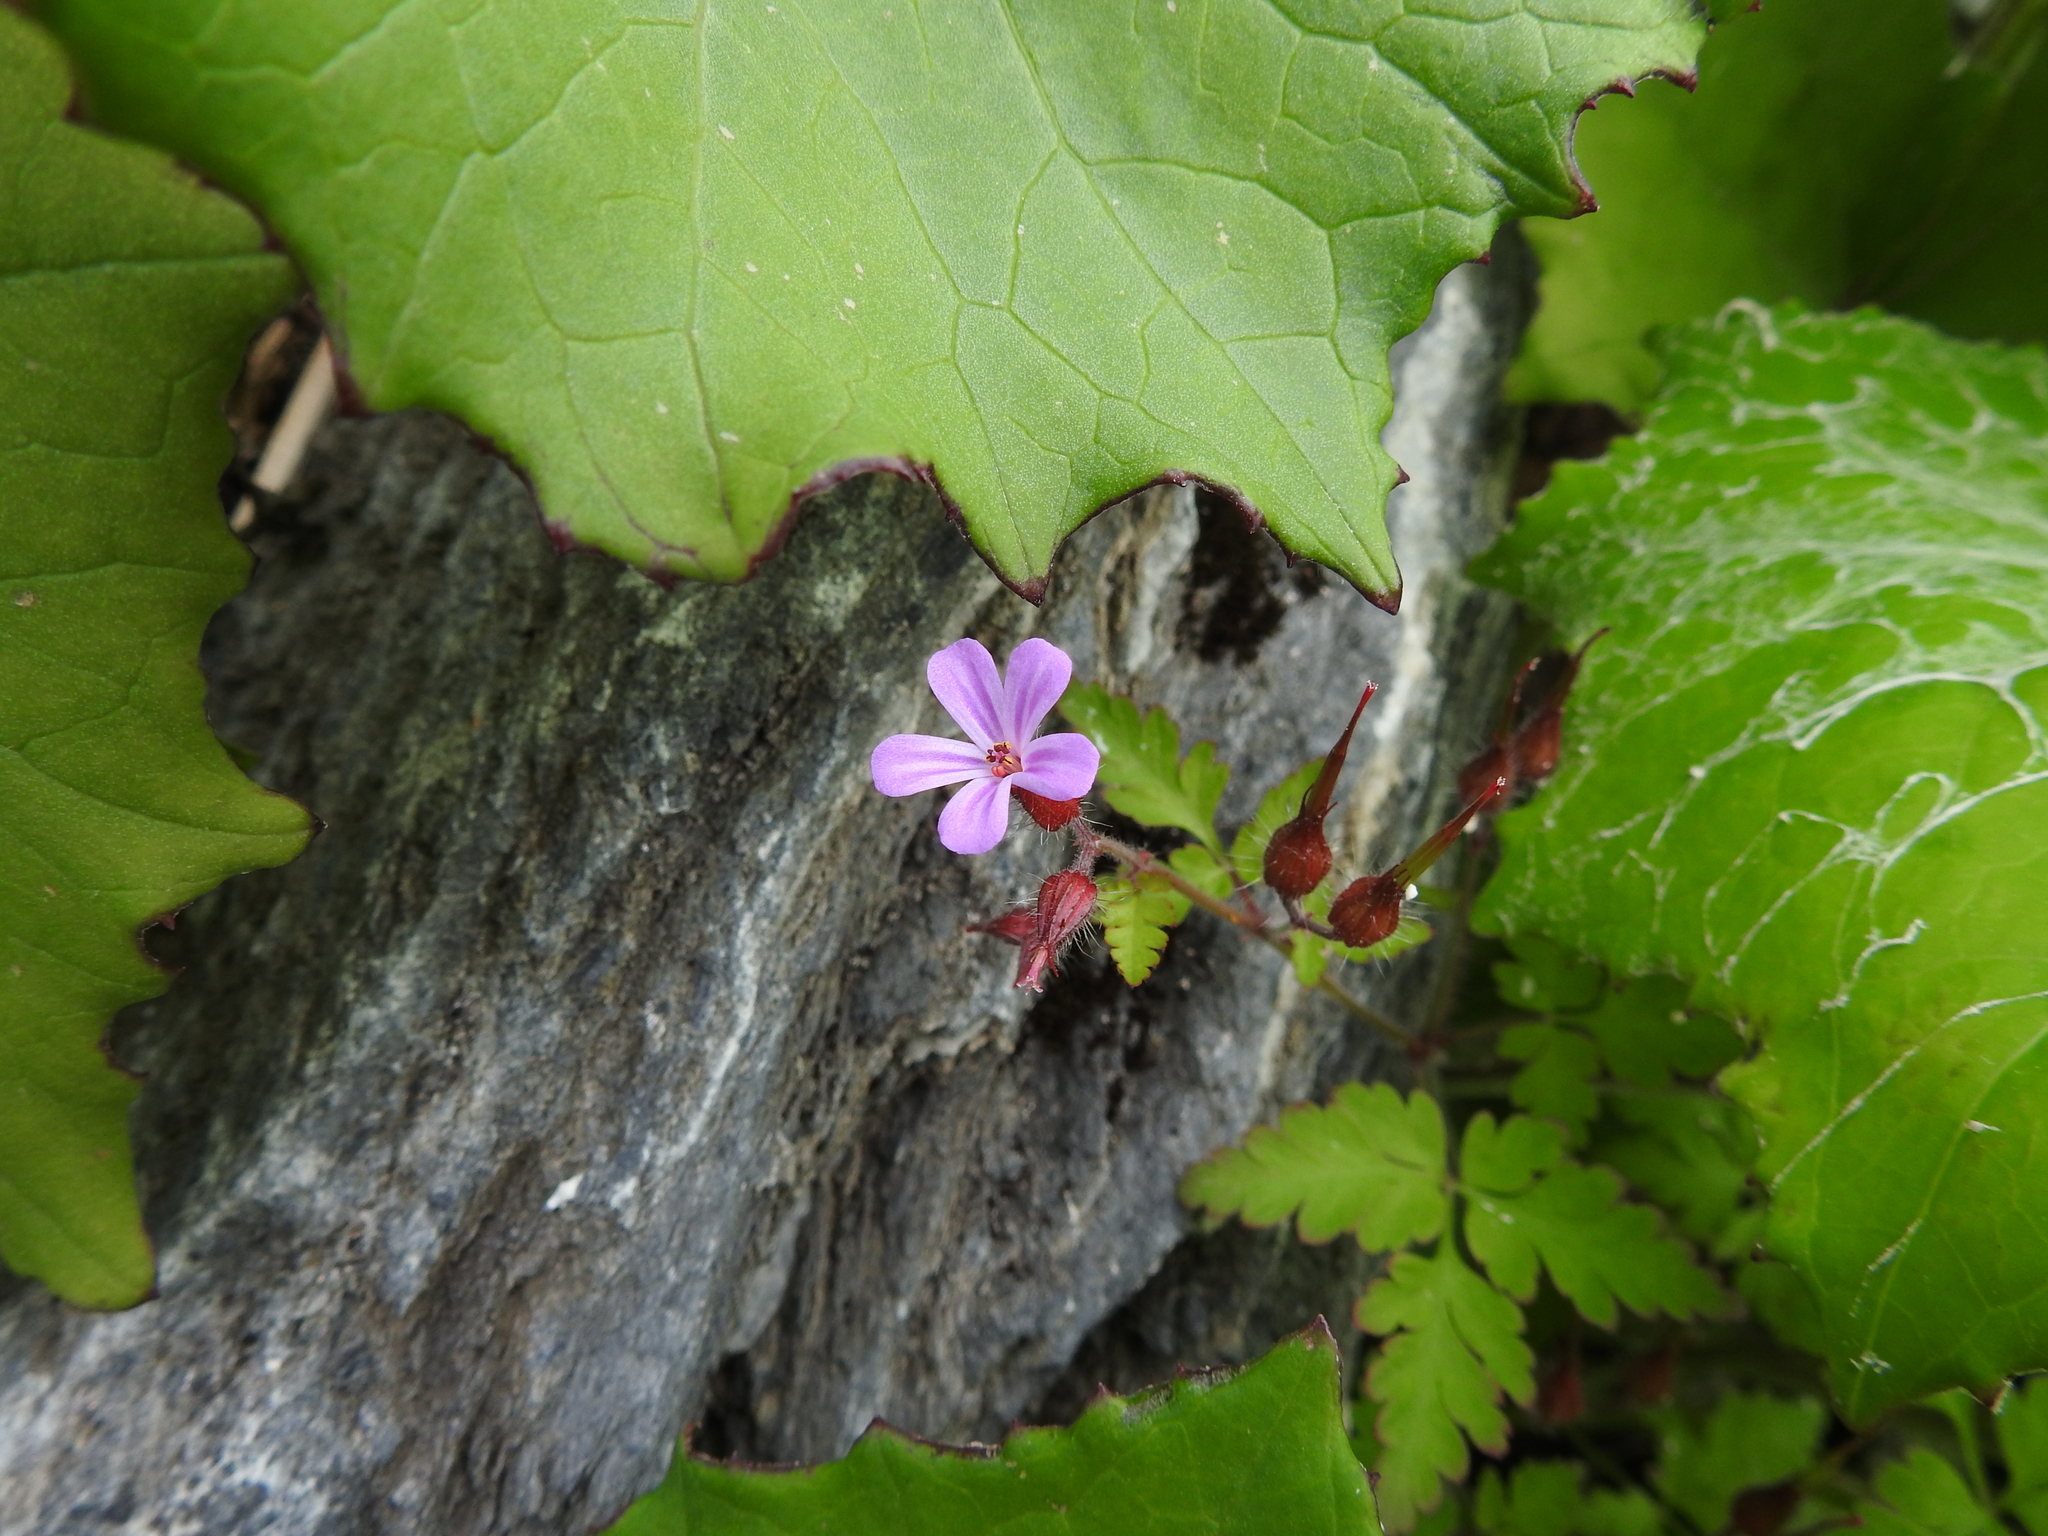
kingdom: Plantae
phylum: Tracheophyta
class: Magnoliopsida
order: Fabales
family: Fabaceae
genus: Lathyrus
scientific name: Lathyrus pratensis
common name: Meadow vetchling
